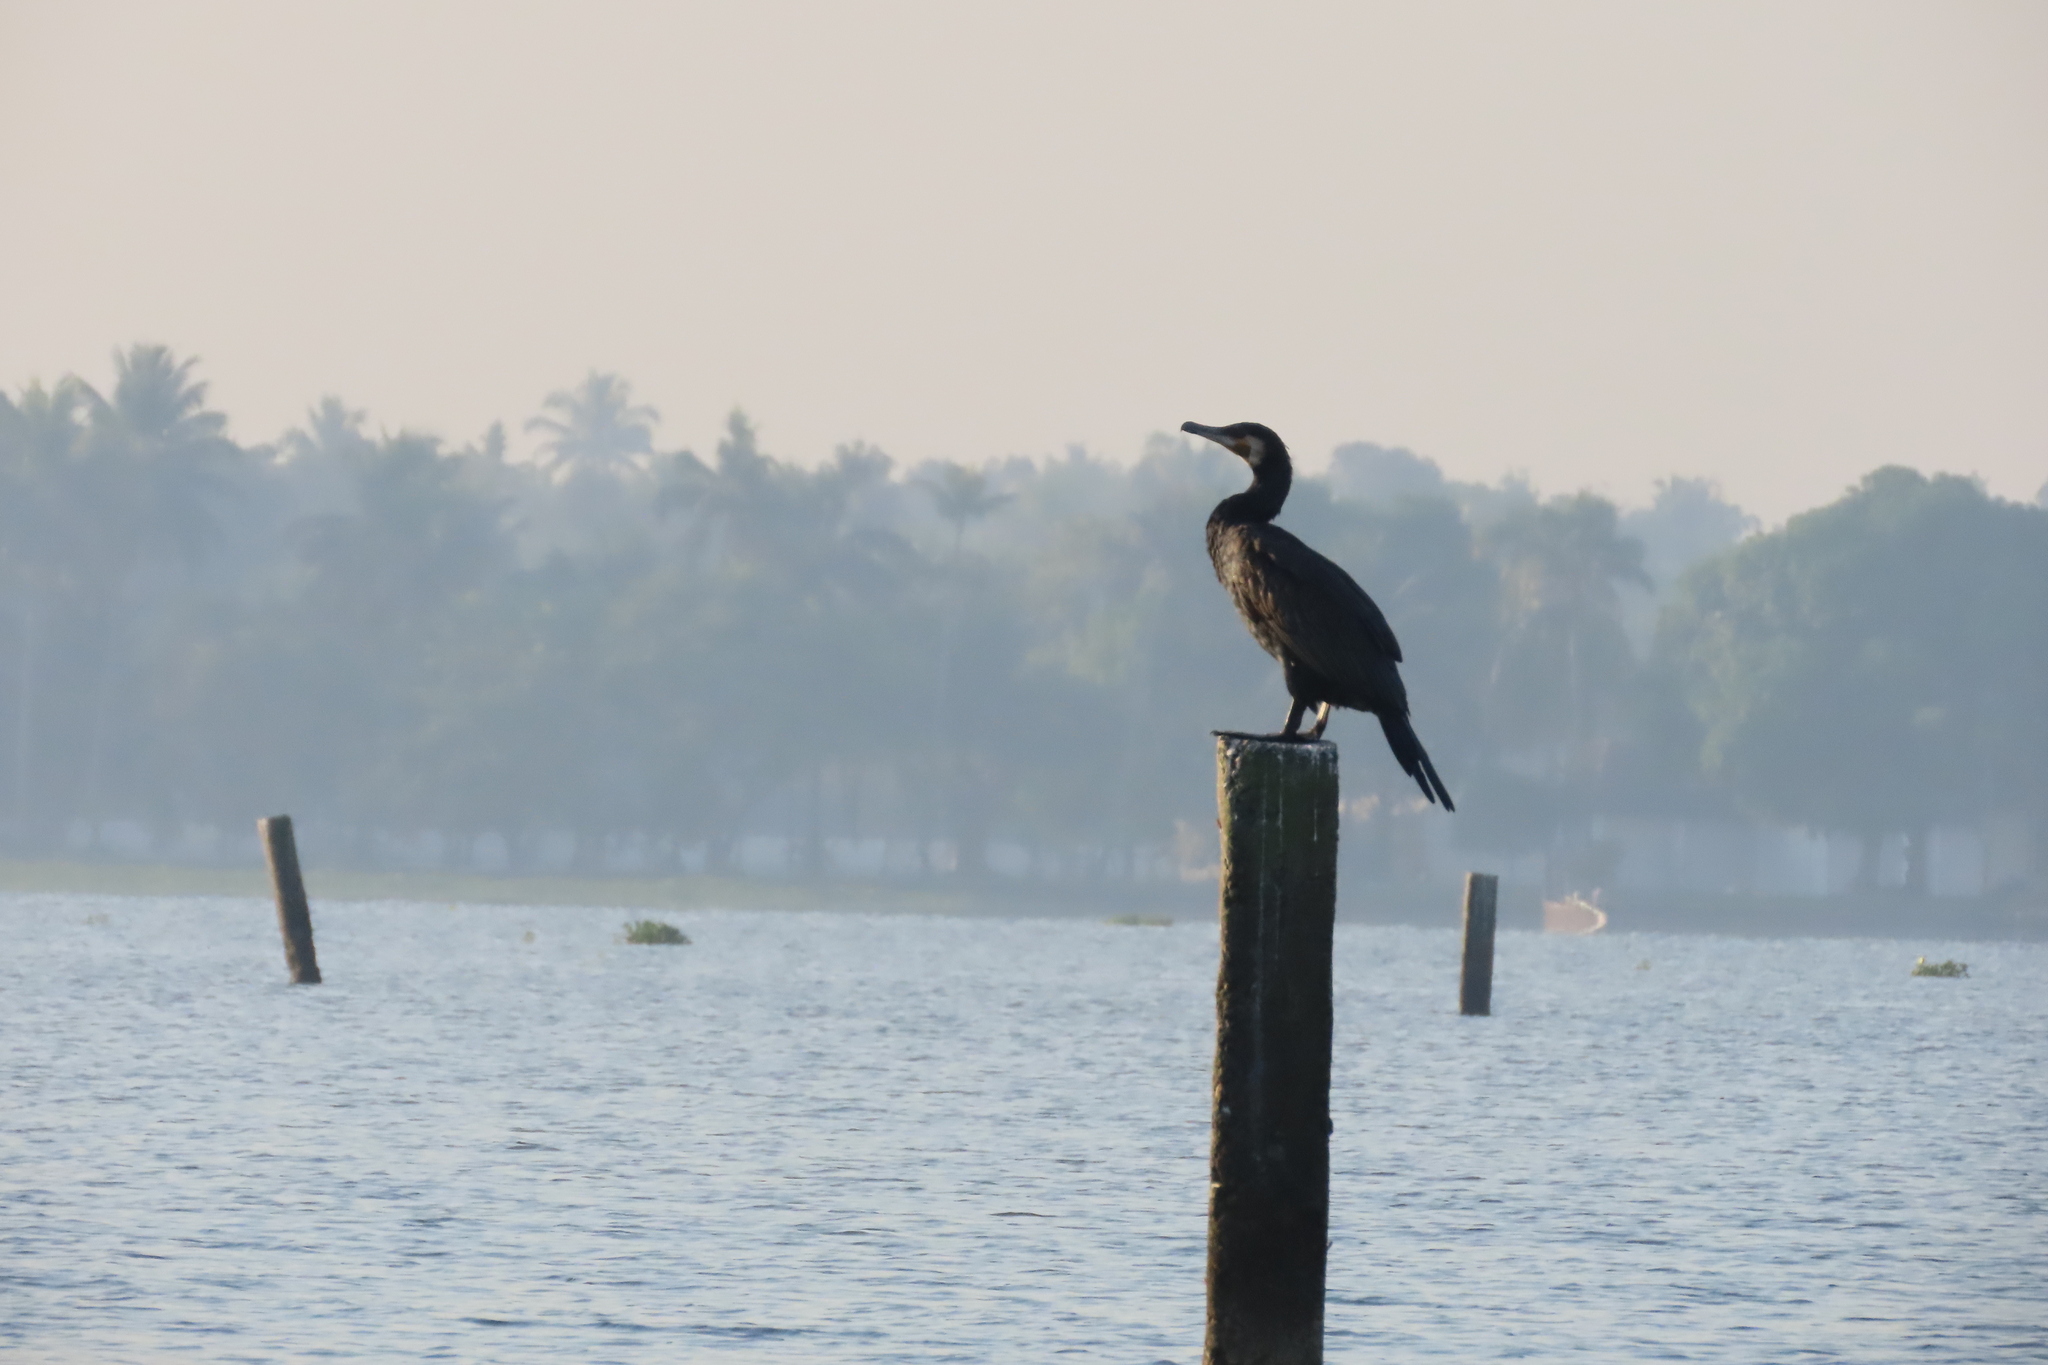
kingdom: Animalia
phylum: Chordata
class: Aves
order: Suliformes
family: Phalacrocoracidae
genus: Phalacrocorax
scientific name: Phalacrocorax carbo
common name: Great cormorant
